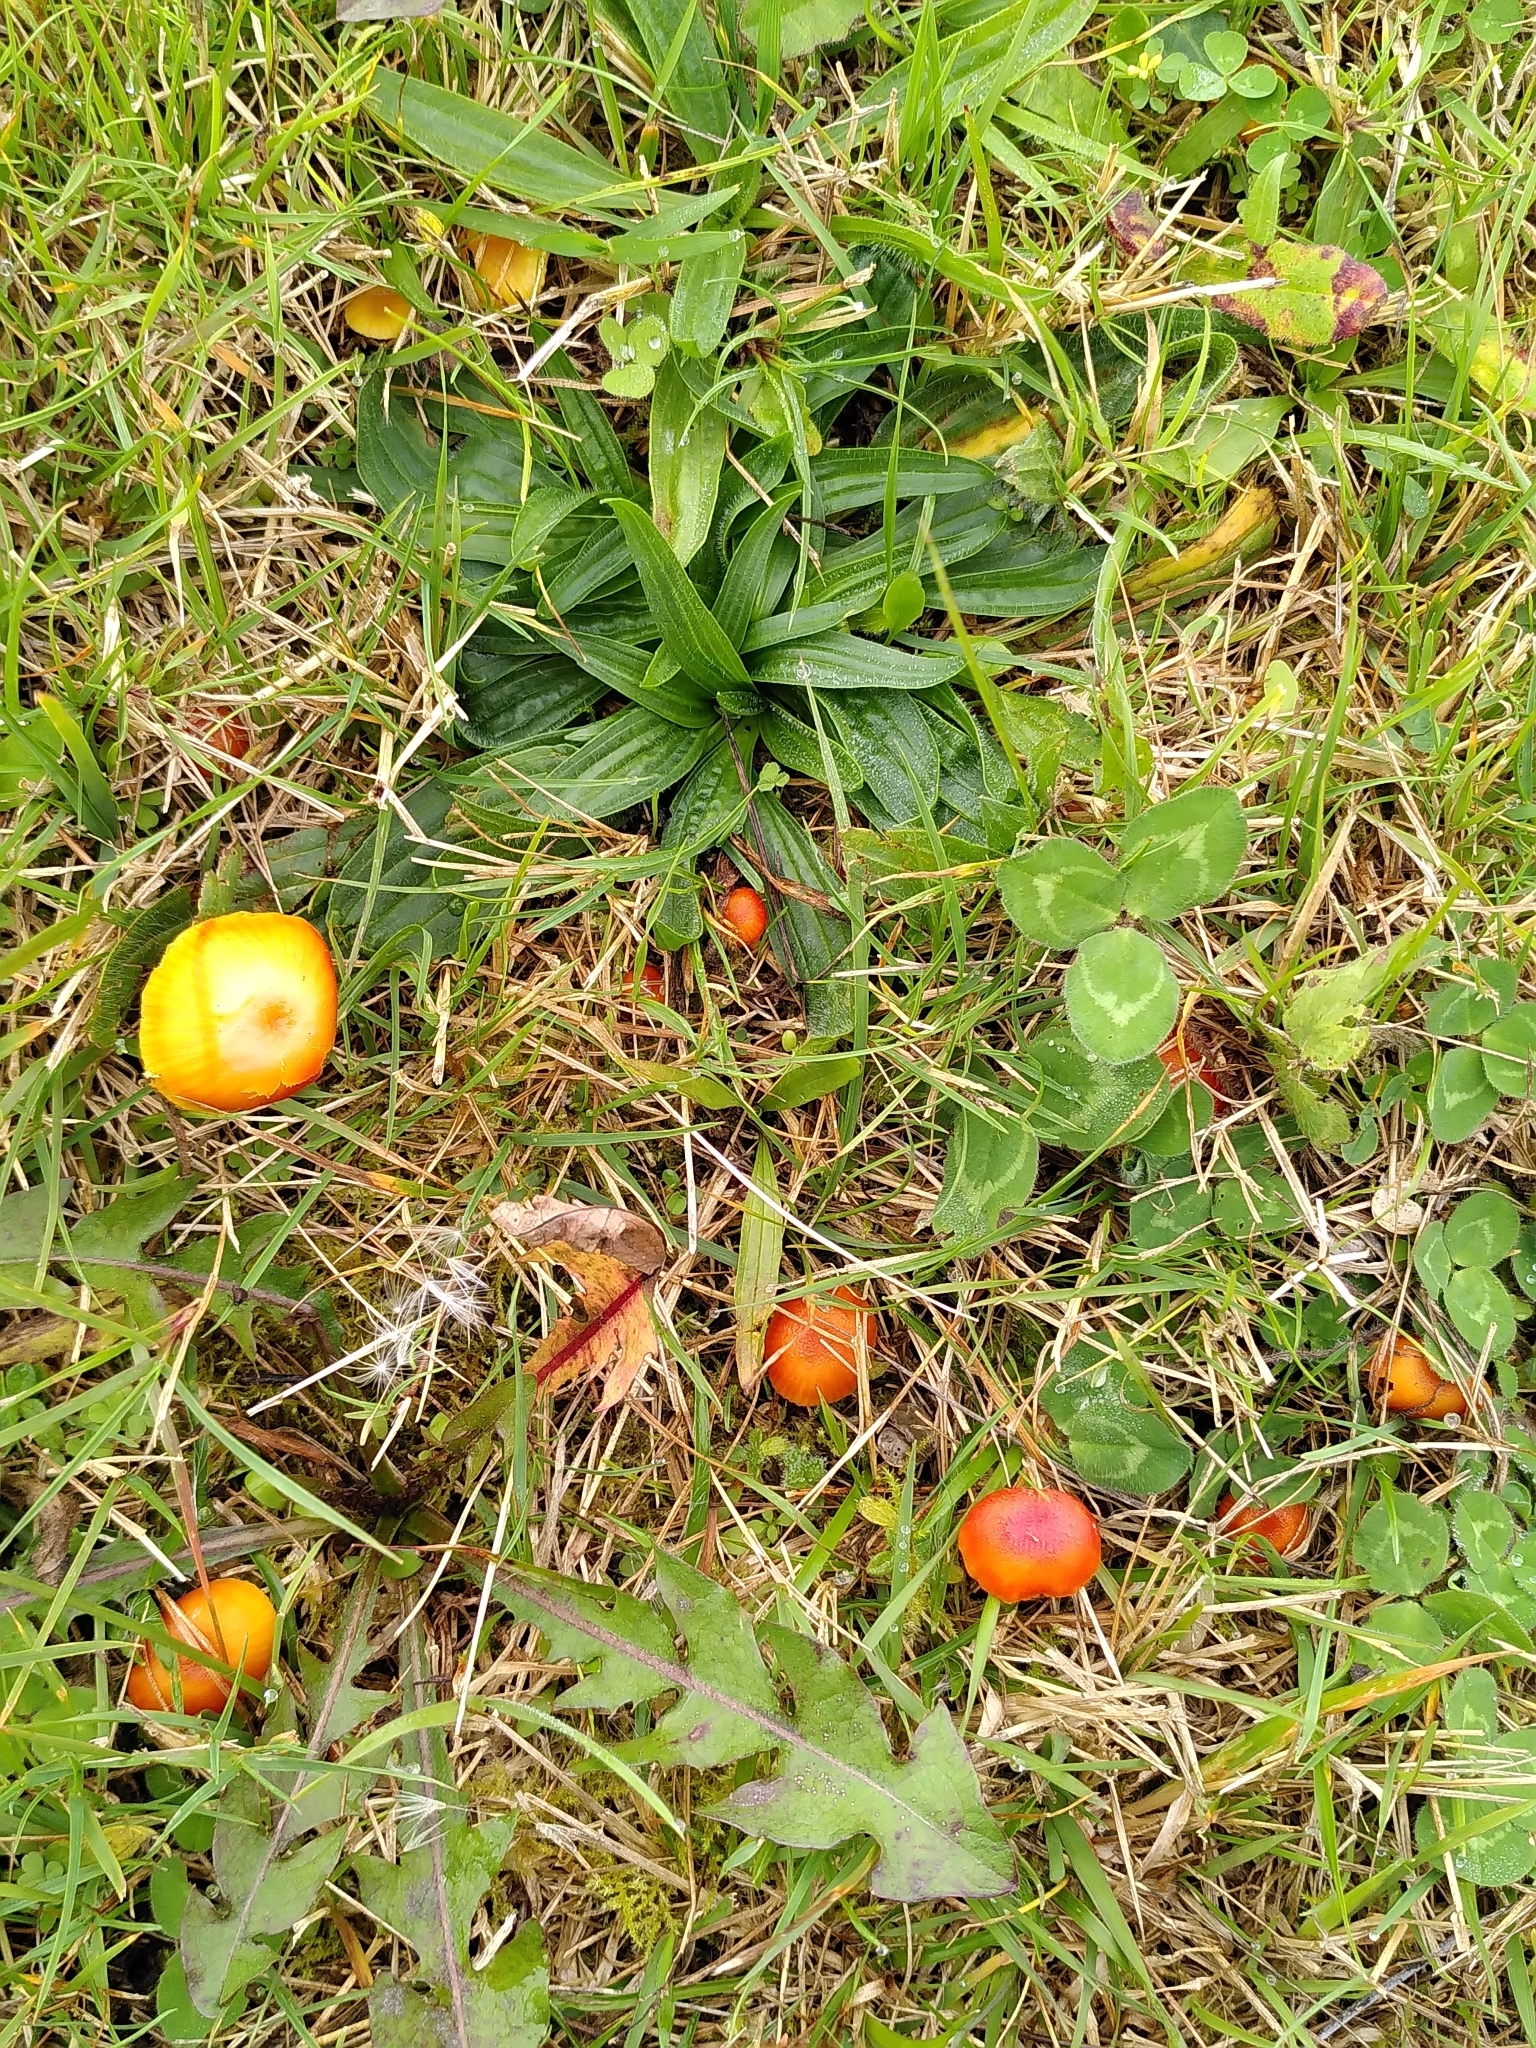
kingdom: Fungi
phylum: Basidiomycota
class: Agaricomycetes
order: Agaricales
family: Hygrophoraceae
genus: Hygrocybe
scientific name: Hygrocybe insipida
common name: Spangle waxcap
